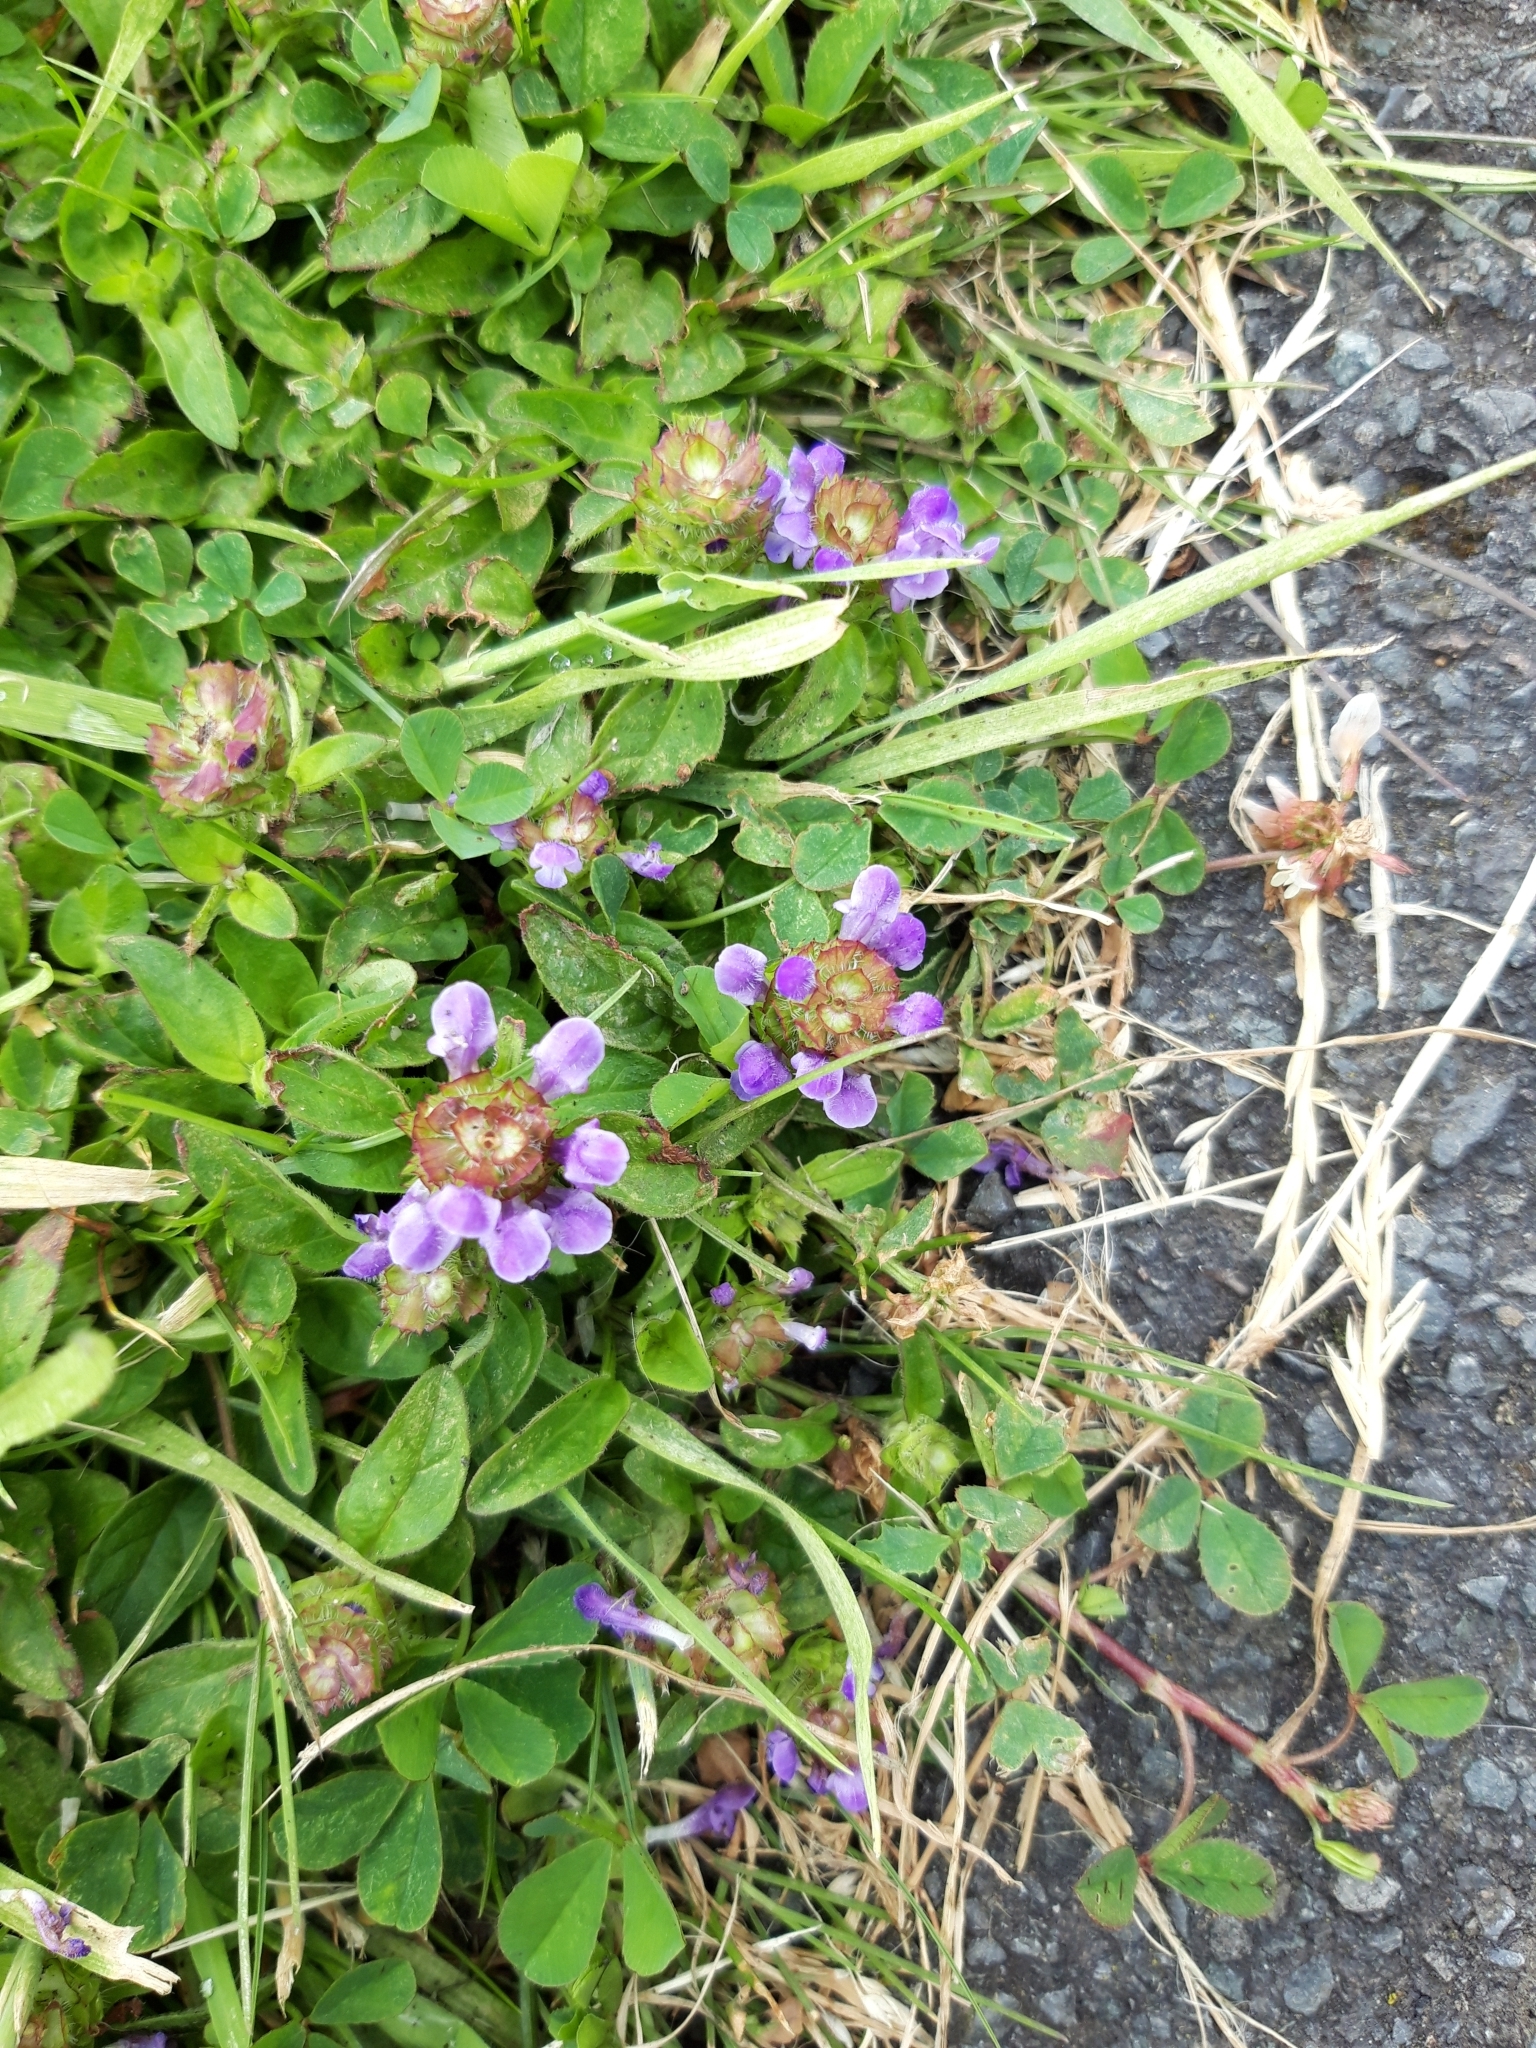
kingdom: Plantae
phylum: Tracheophyta
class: Magnoliopsida
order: Lamiales
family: Lamiaceae
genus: Prunella
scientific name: Prunella vulgaris
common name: Heal-all
